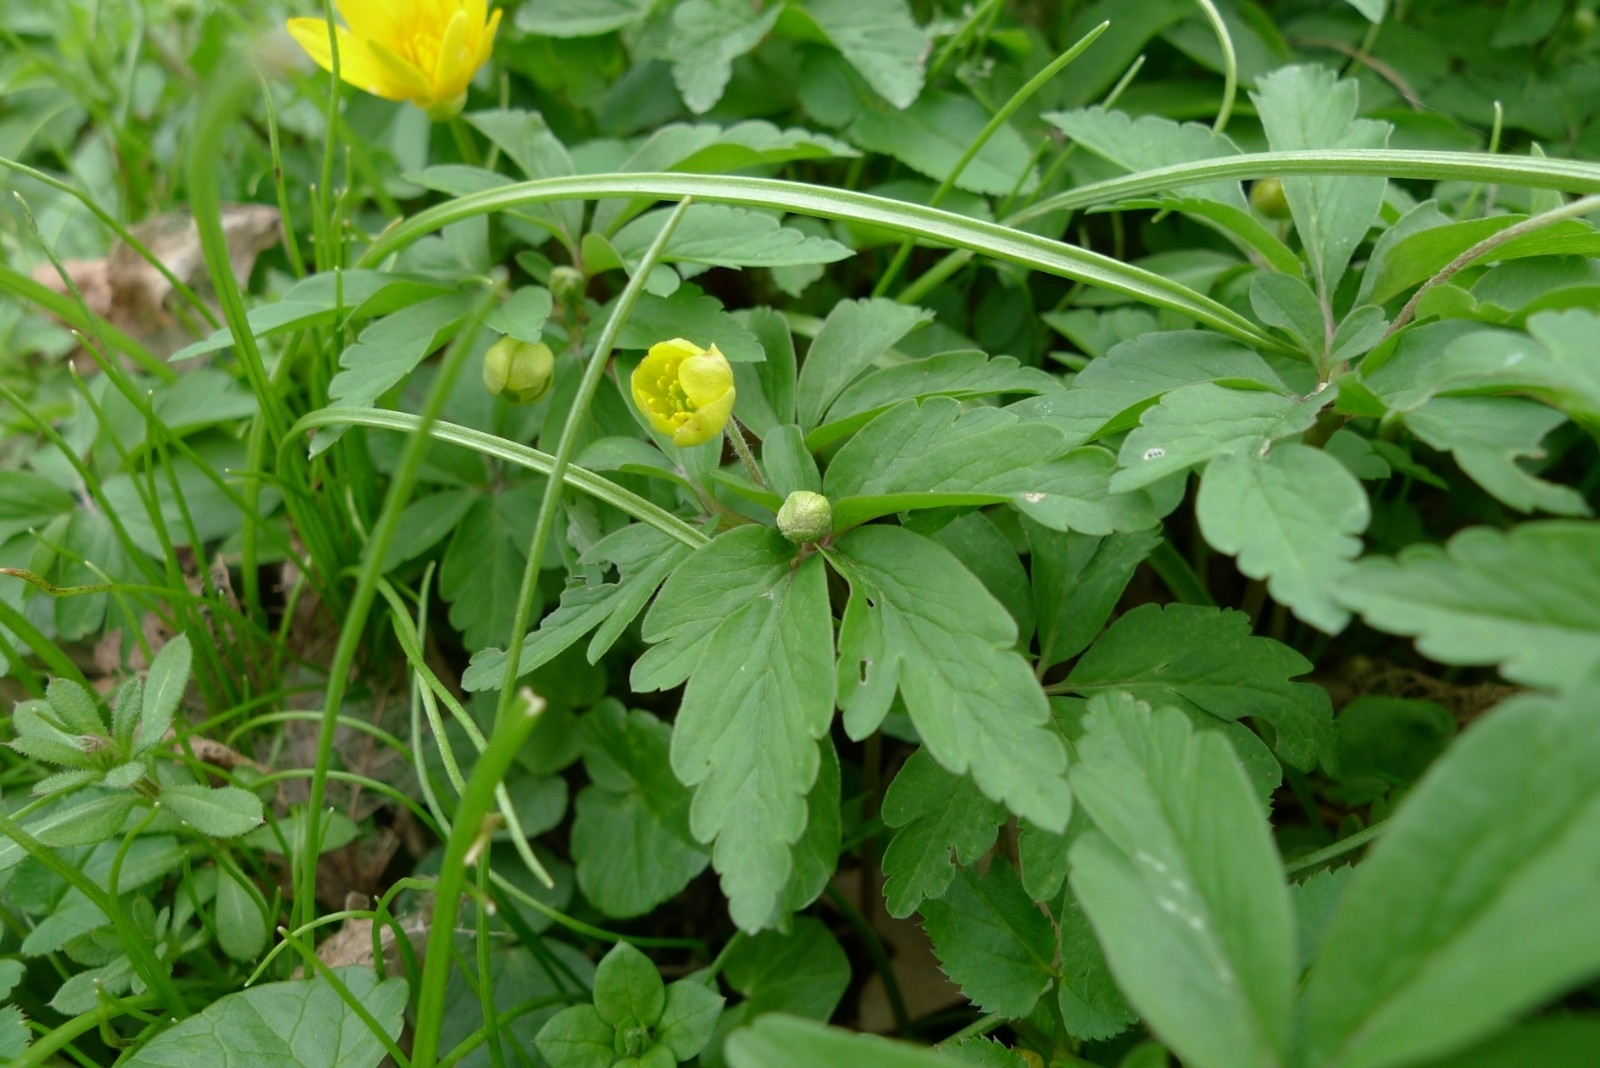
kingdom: Plantae
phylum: Tracheophyta
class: Magnoliopsida
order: Ranunculales
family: Ranunculaceae
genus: Anemone
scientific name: Anemone ranunculoides
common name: Yellow anemone
